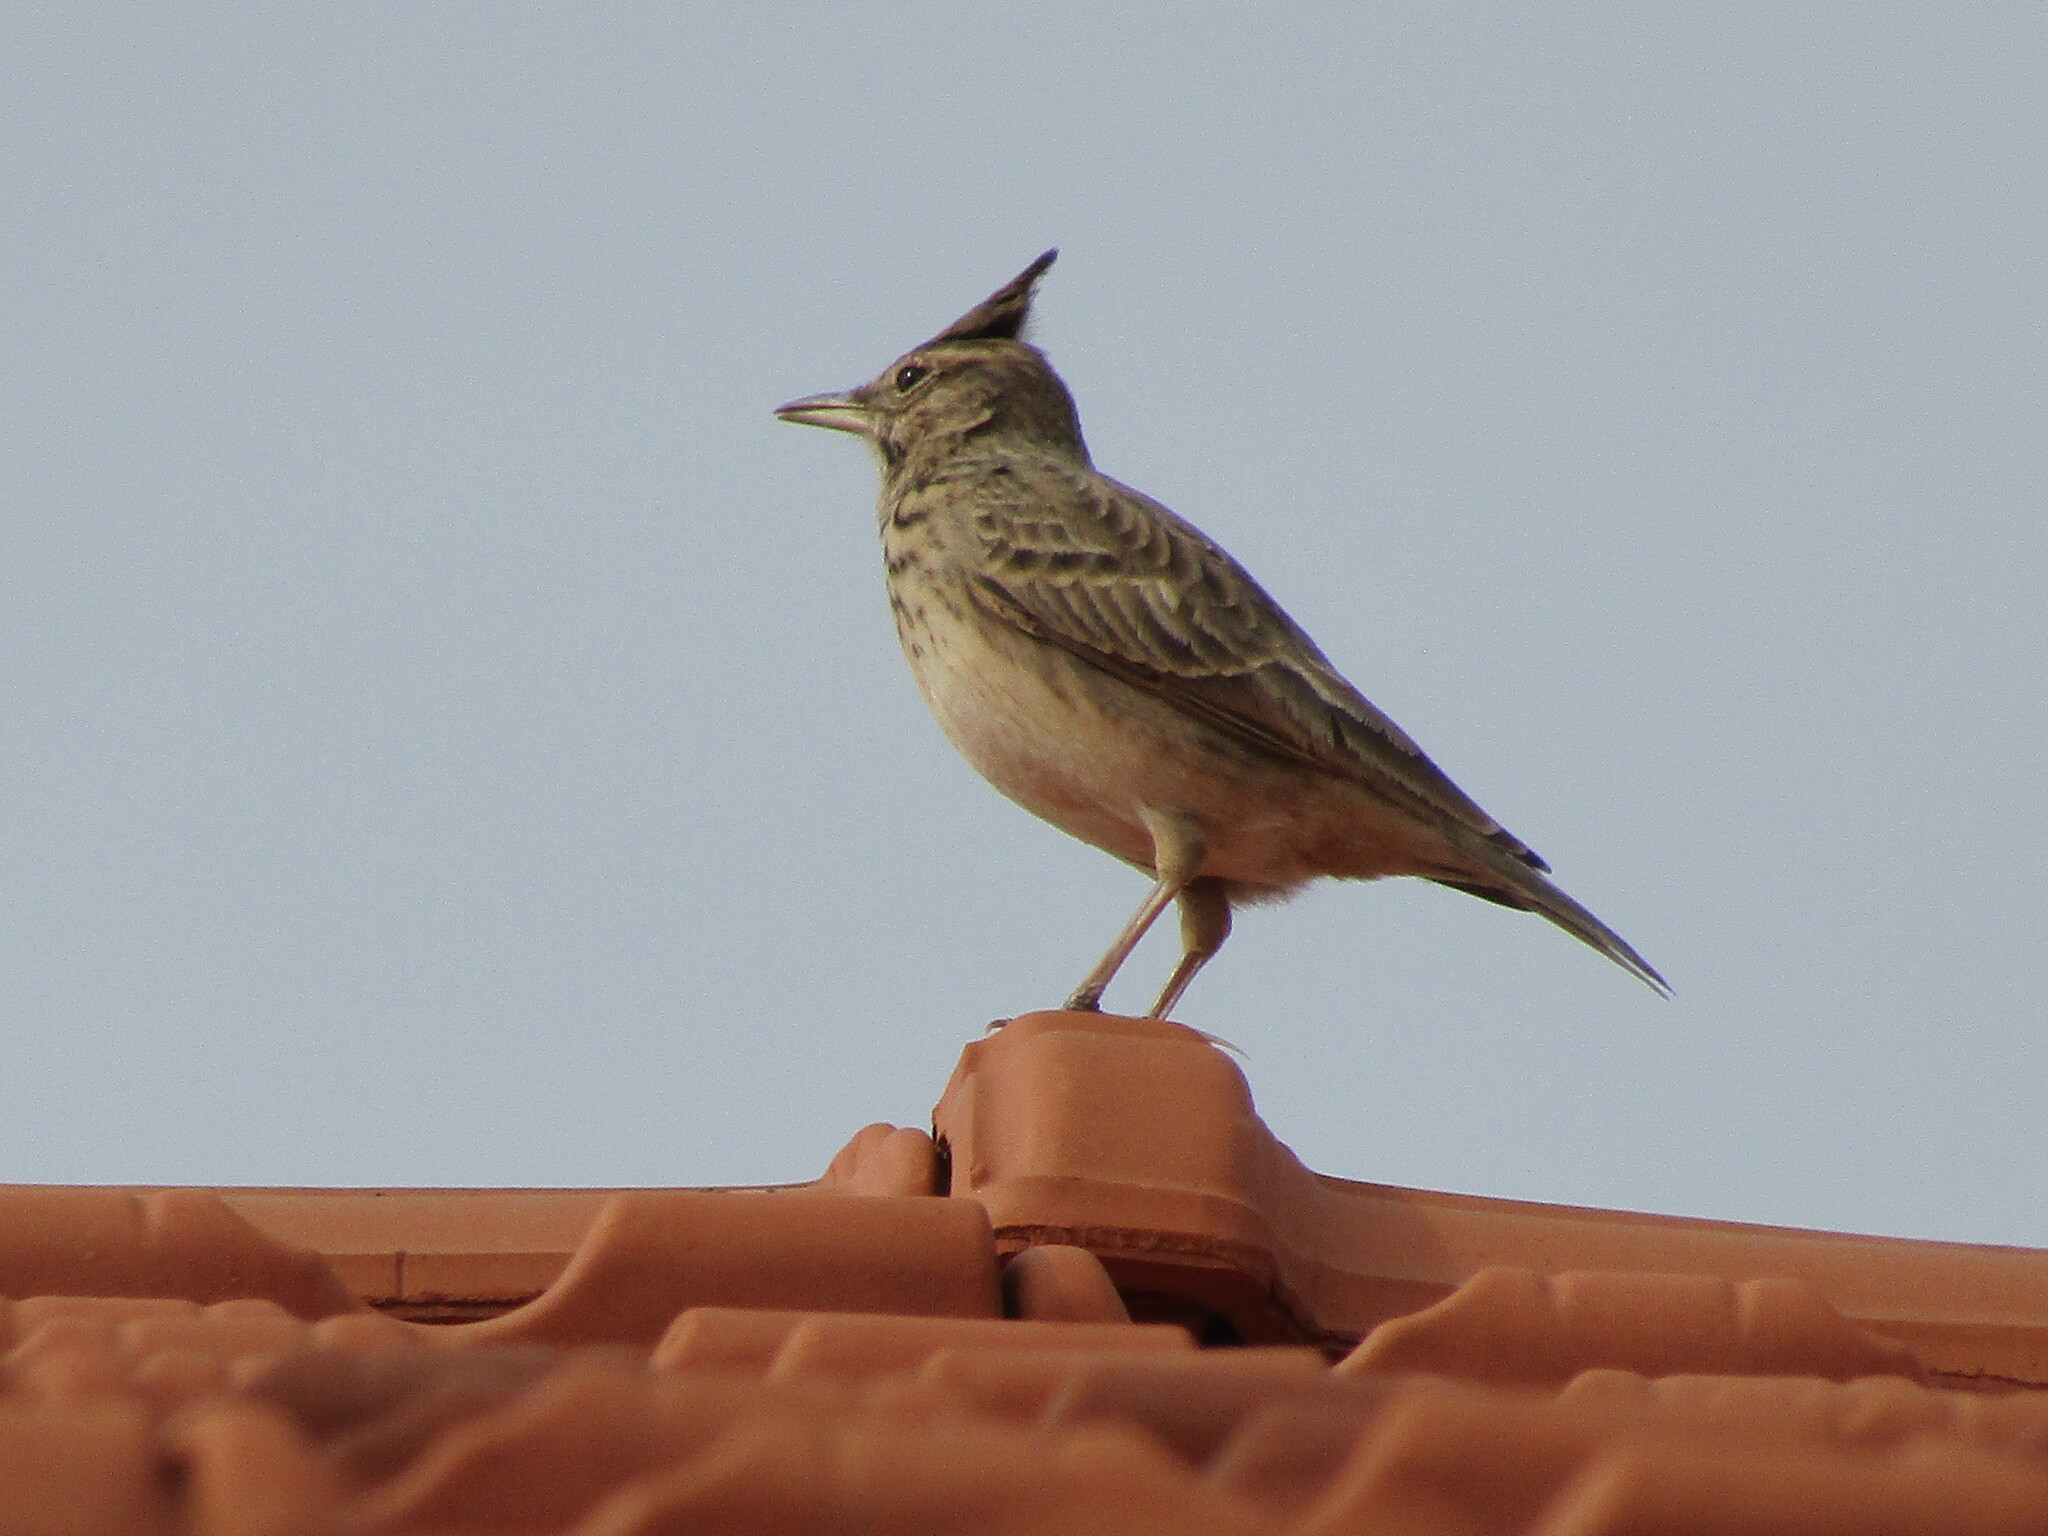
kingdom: Animalia
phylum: Chordata
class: Aves
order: Passeriformes
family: Alaudidae
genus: Galerida
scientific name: Galerida cristata
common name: Crested lark
